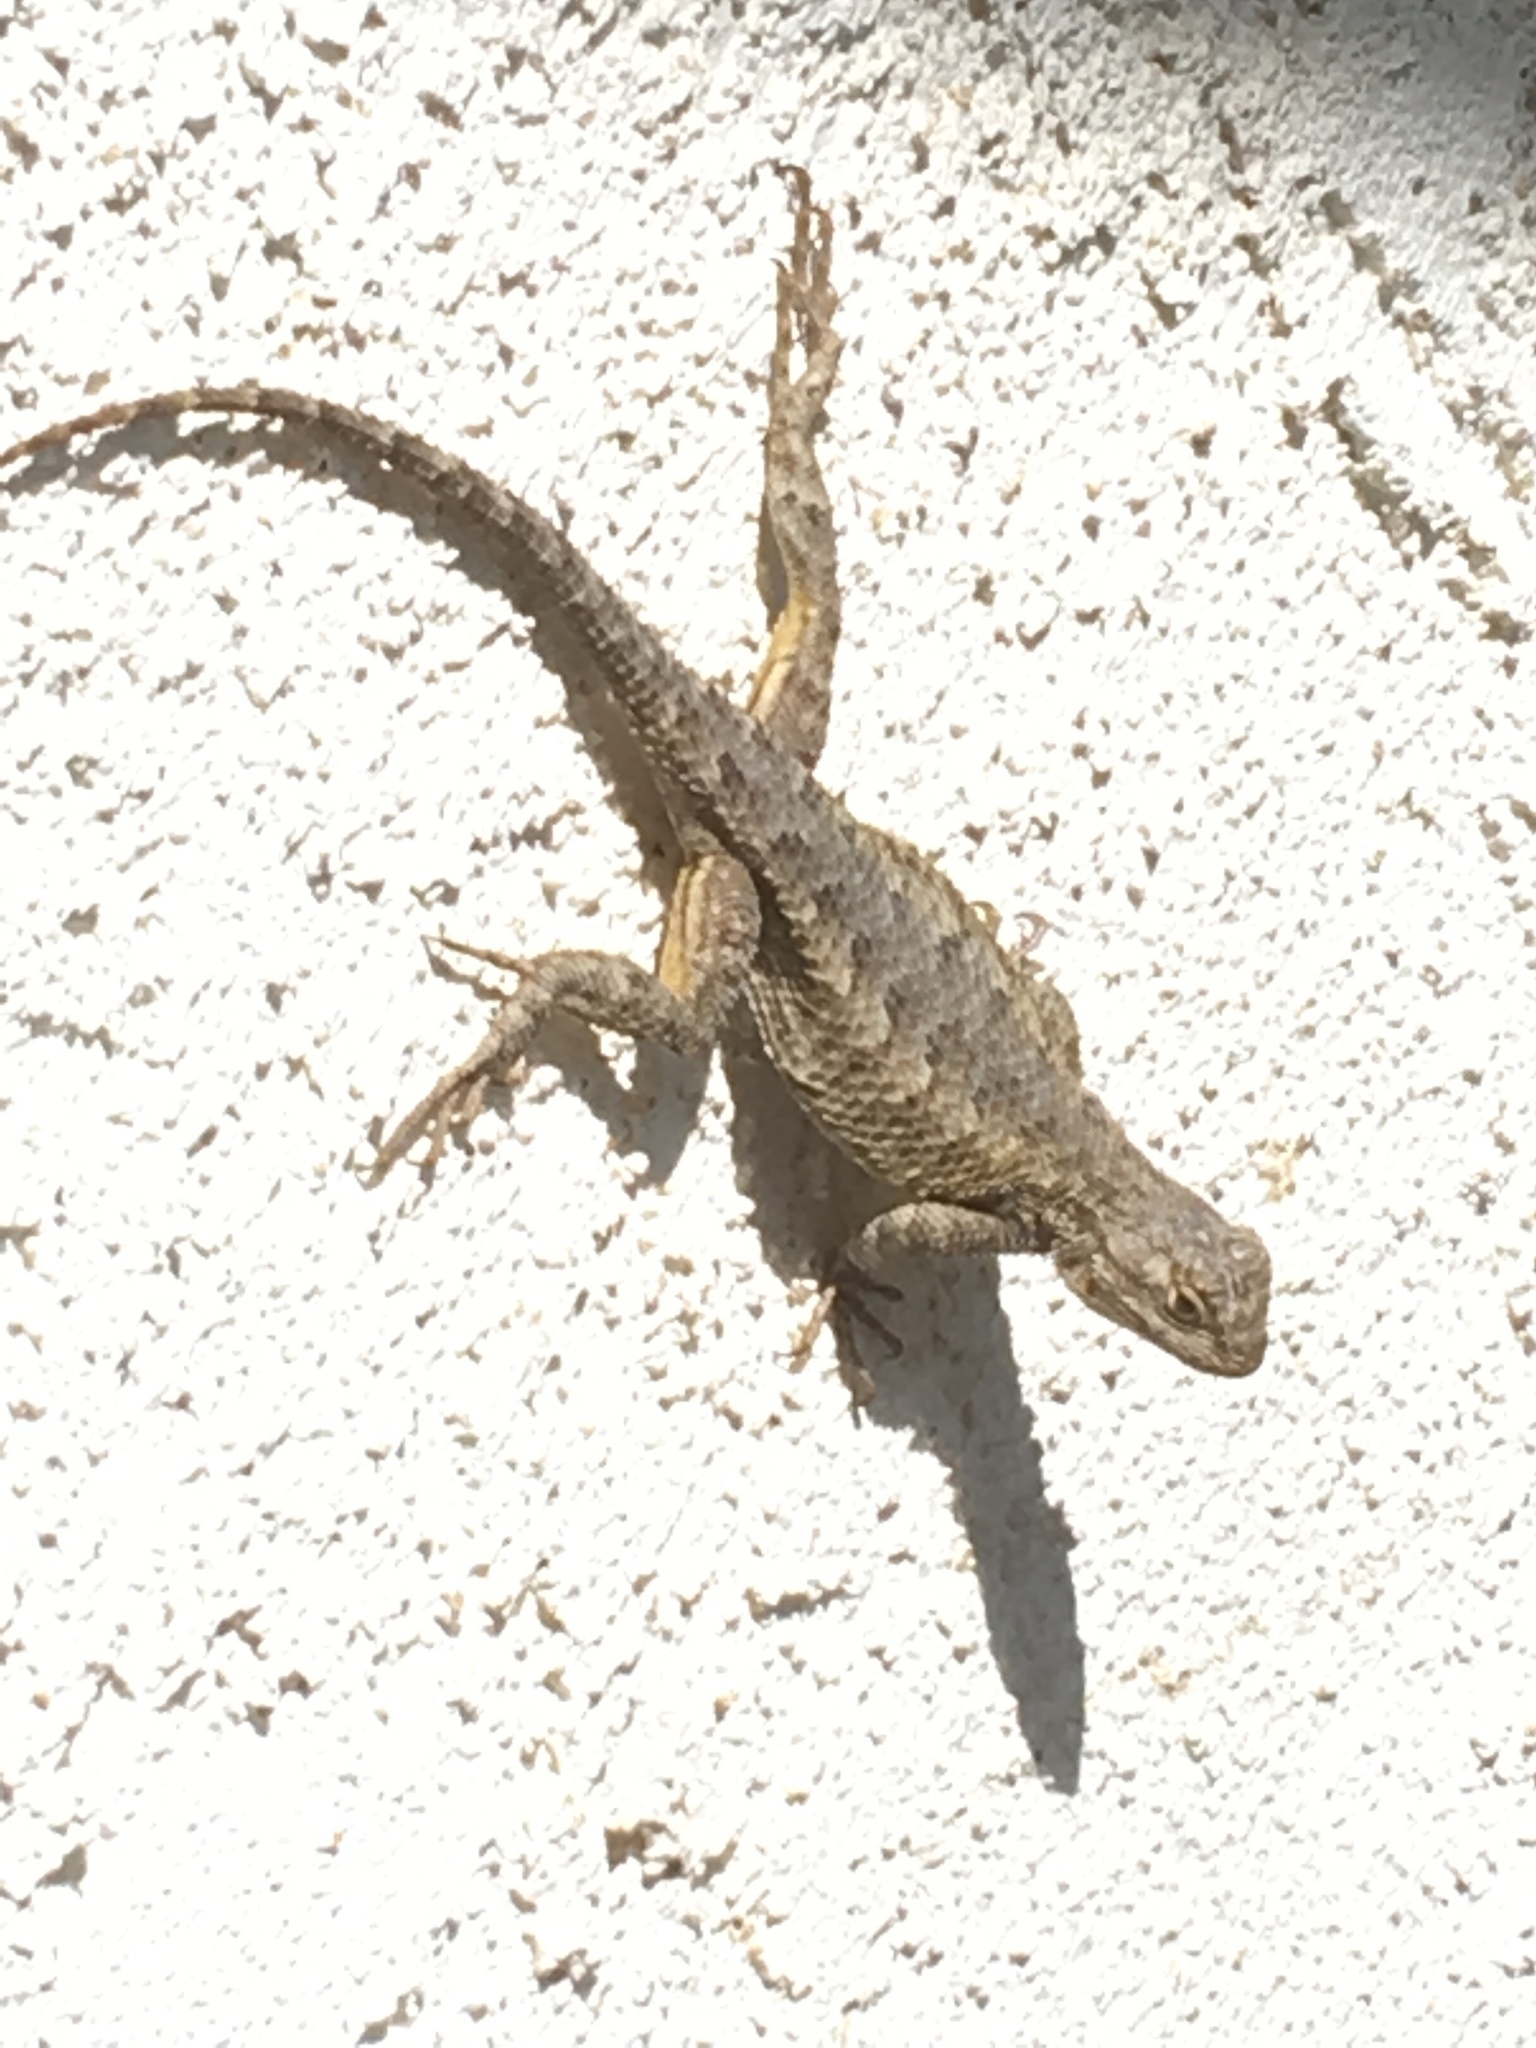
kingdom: Animalia
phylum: Chordata
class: Squamata
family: Phrynosomatidae
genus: Sceloporus
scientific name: Sceloporus occidentalis
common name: Western fence lizard
